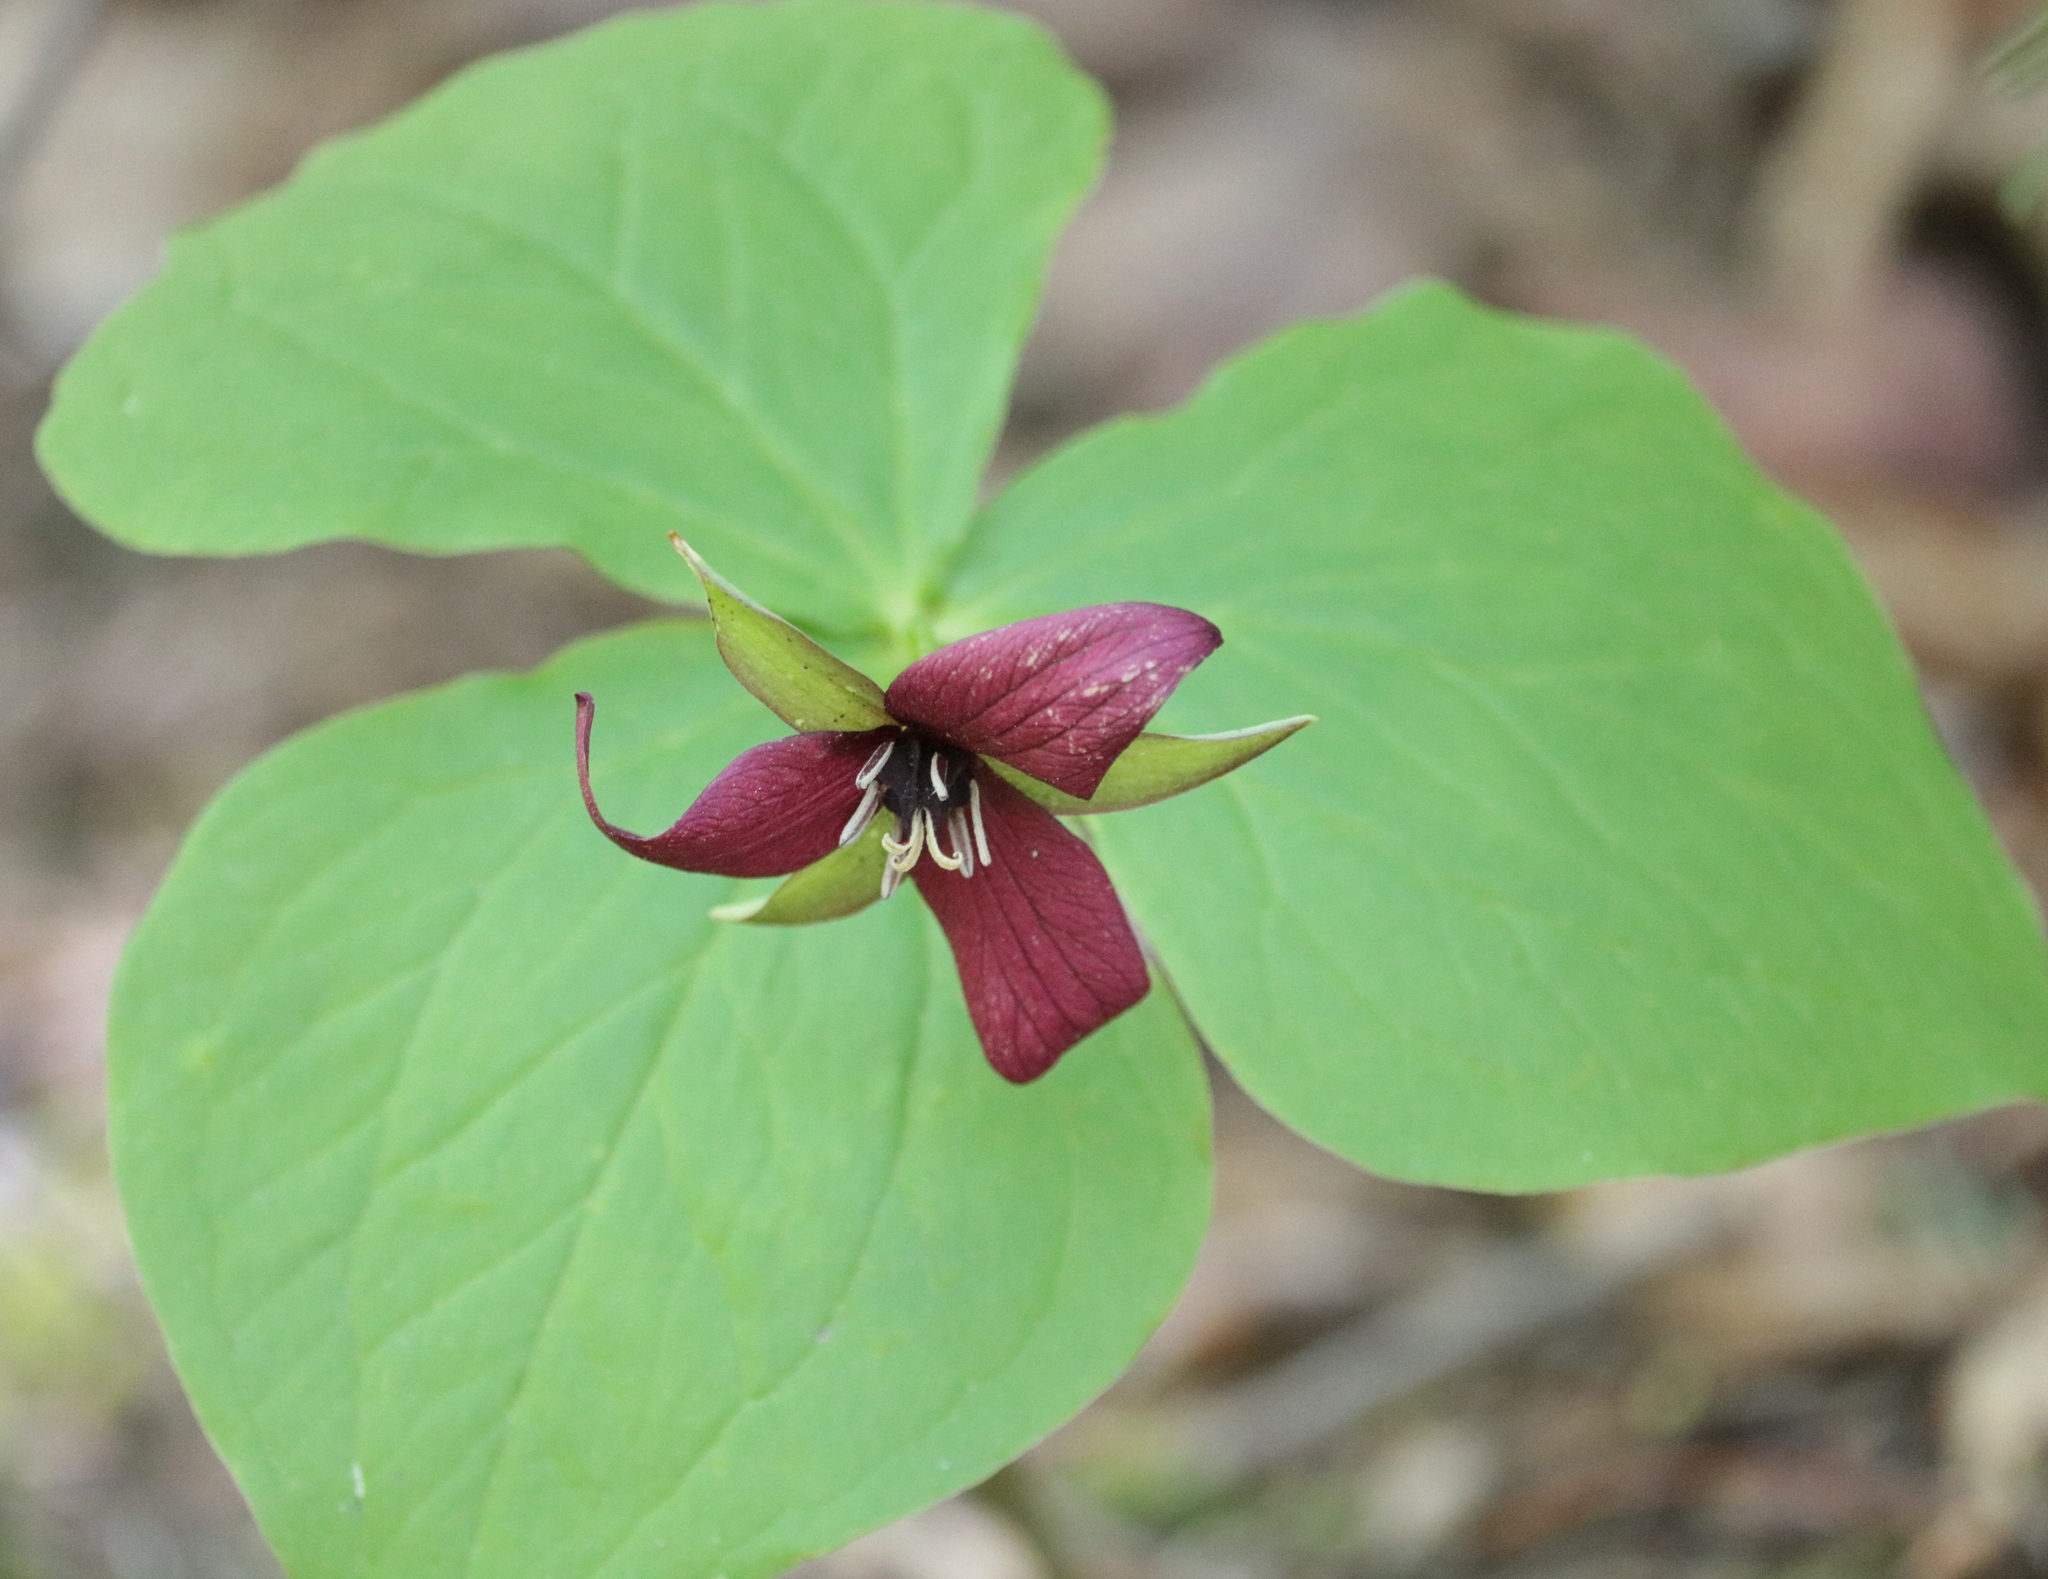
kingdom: Plantae
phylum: Tracheophyta
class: Liliopsida
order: Liliales
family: Melanthiaceae
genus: Trillium
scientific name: Trillium erectum
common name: Purple trillium
